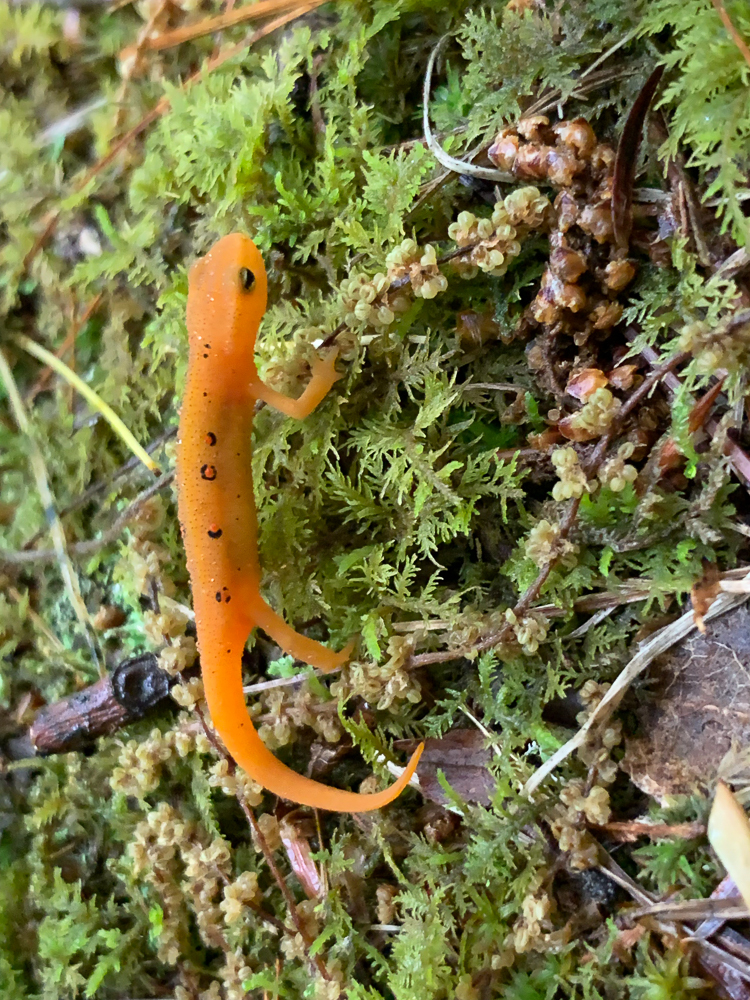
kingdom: Animalia
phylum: Chordata
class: Amphibia
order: Caudata
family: Salamandridae
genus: Notophthalmus
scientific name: Notophthalmus viridescens
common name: Eastern newt
